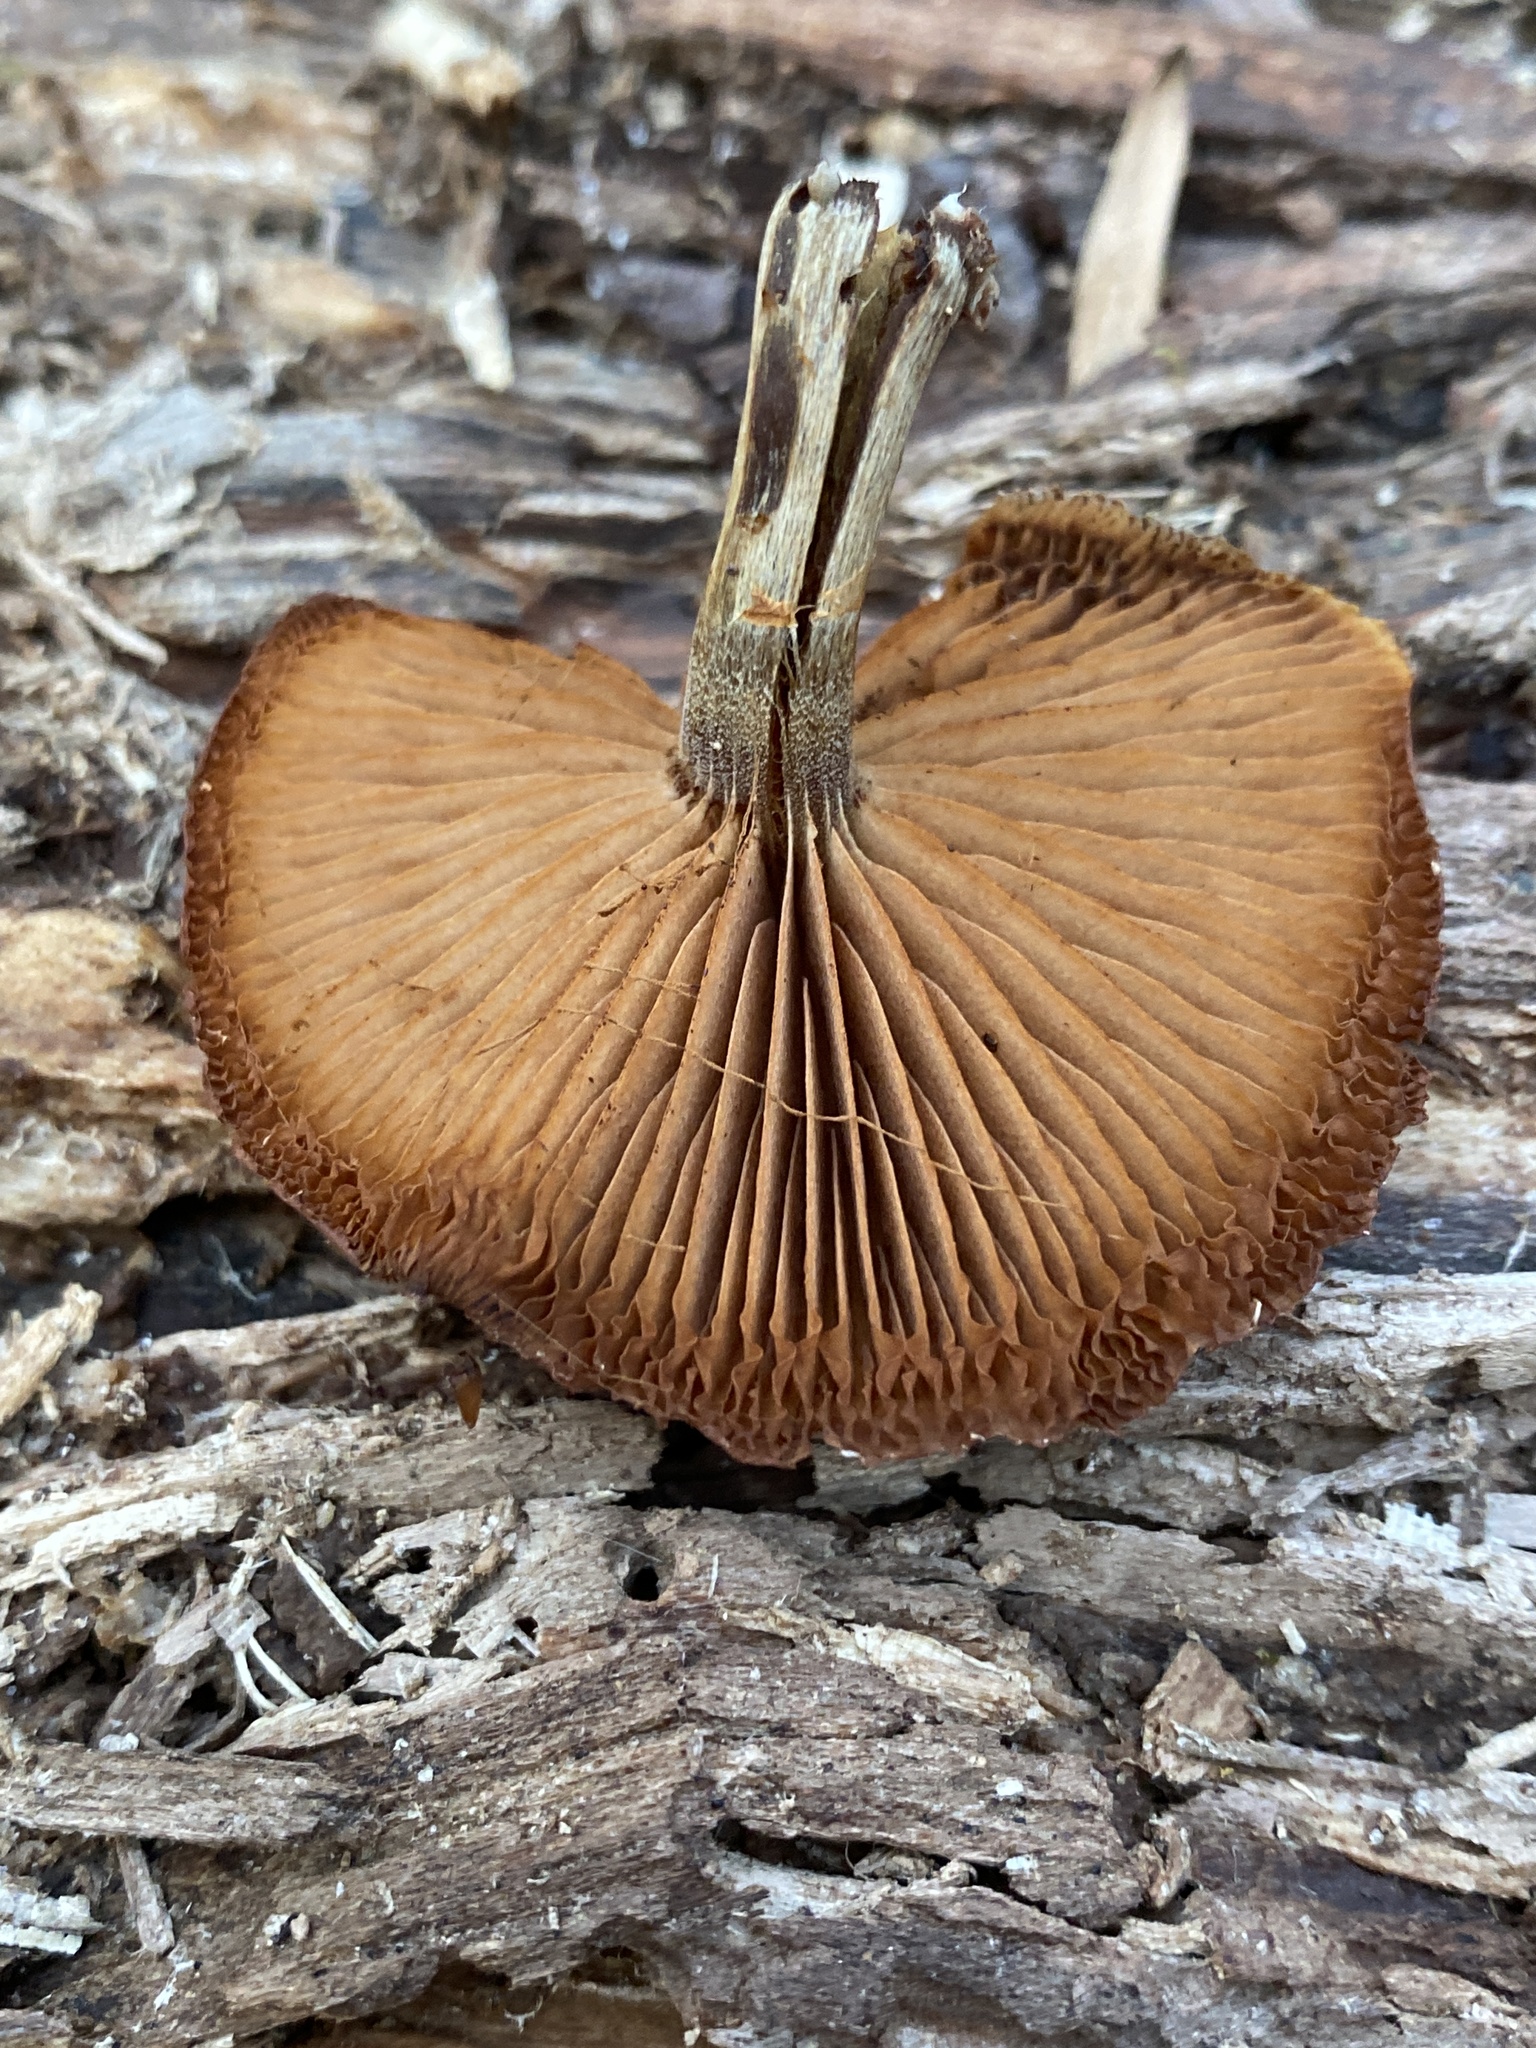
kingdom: Fungi
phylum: Basidiomycota
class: Agaricomycetes
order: Agaricales
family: Hymenogastraceae
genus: Galerina
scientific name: Galerina marginata
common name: Funeral bell
